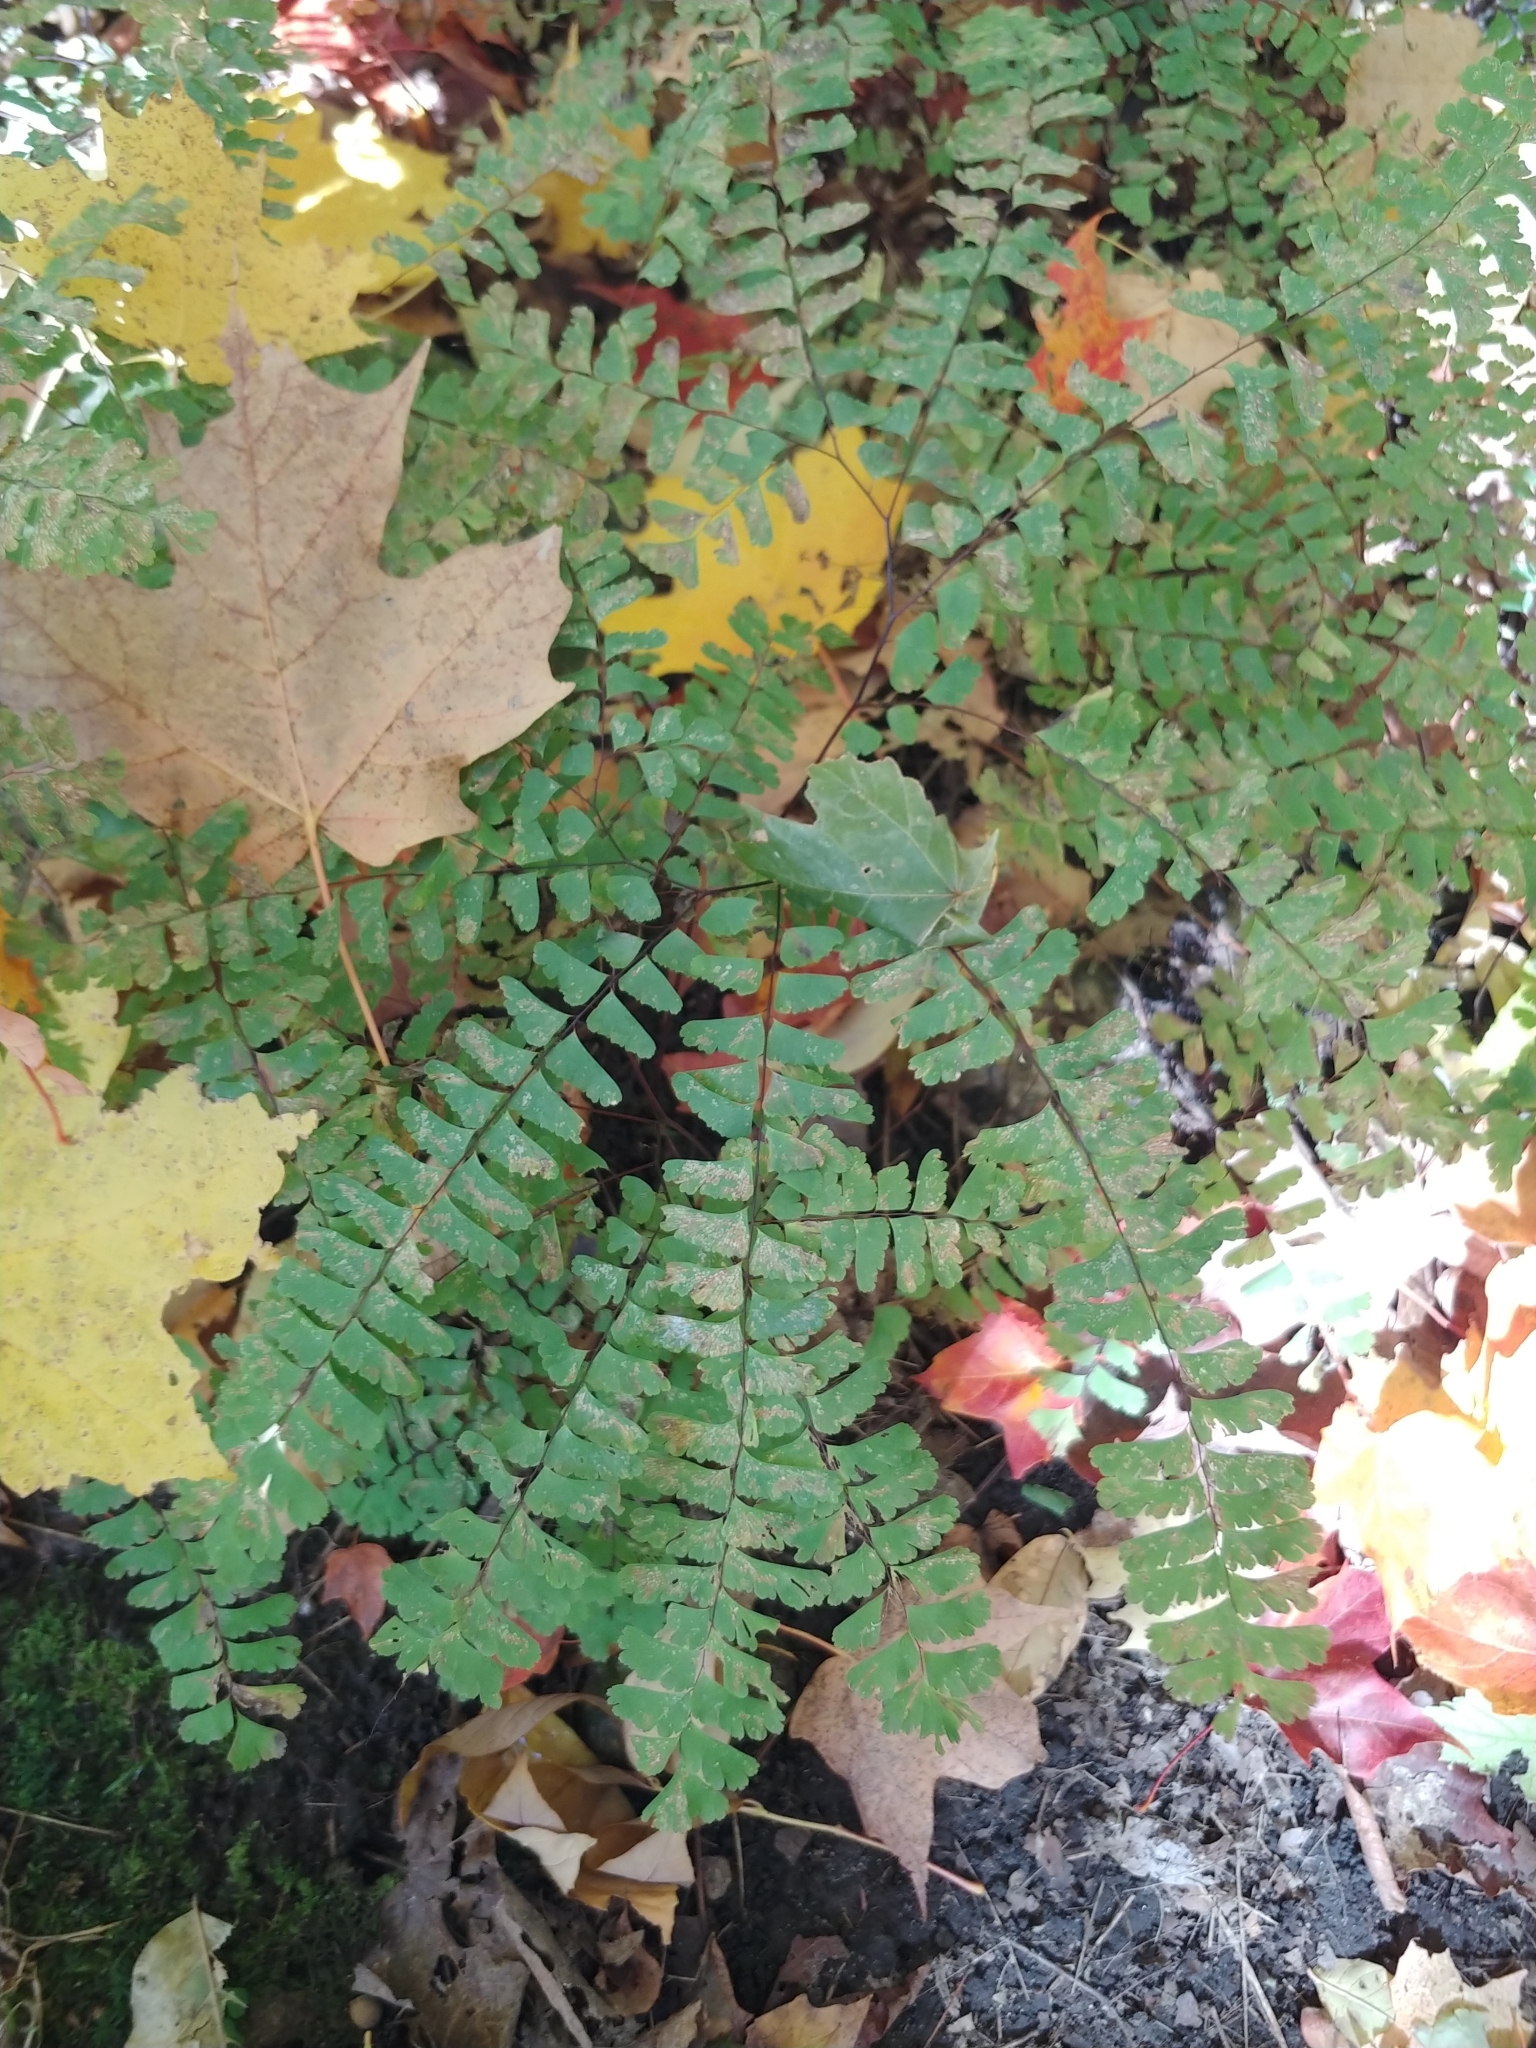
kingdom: Plantae
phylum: Tracheophyta
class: Polypodiopsida
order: Polypodiales
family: Pteridaceae
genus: Adiantum
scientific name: Adiantum pedatum
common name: Five-finger fern
